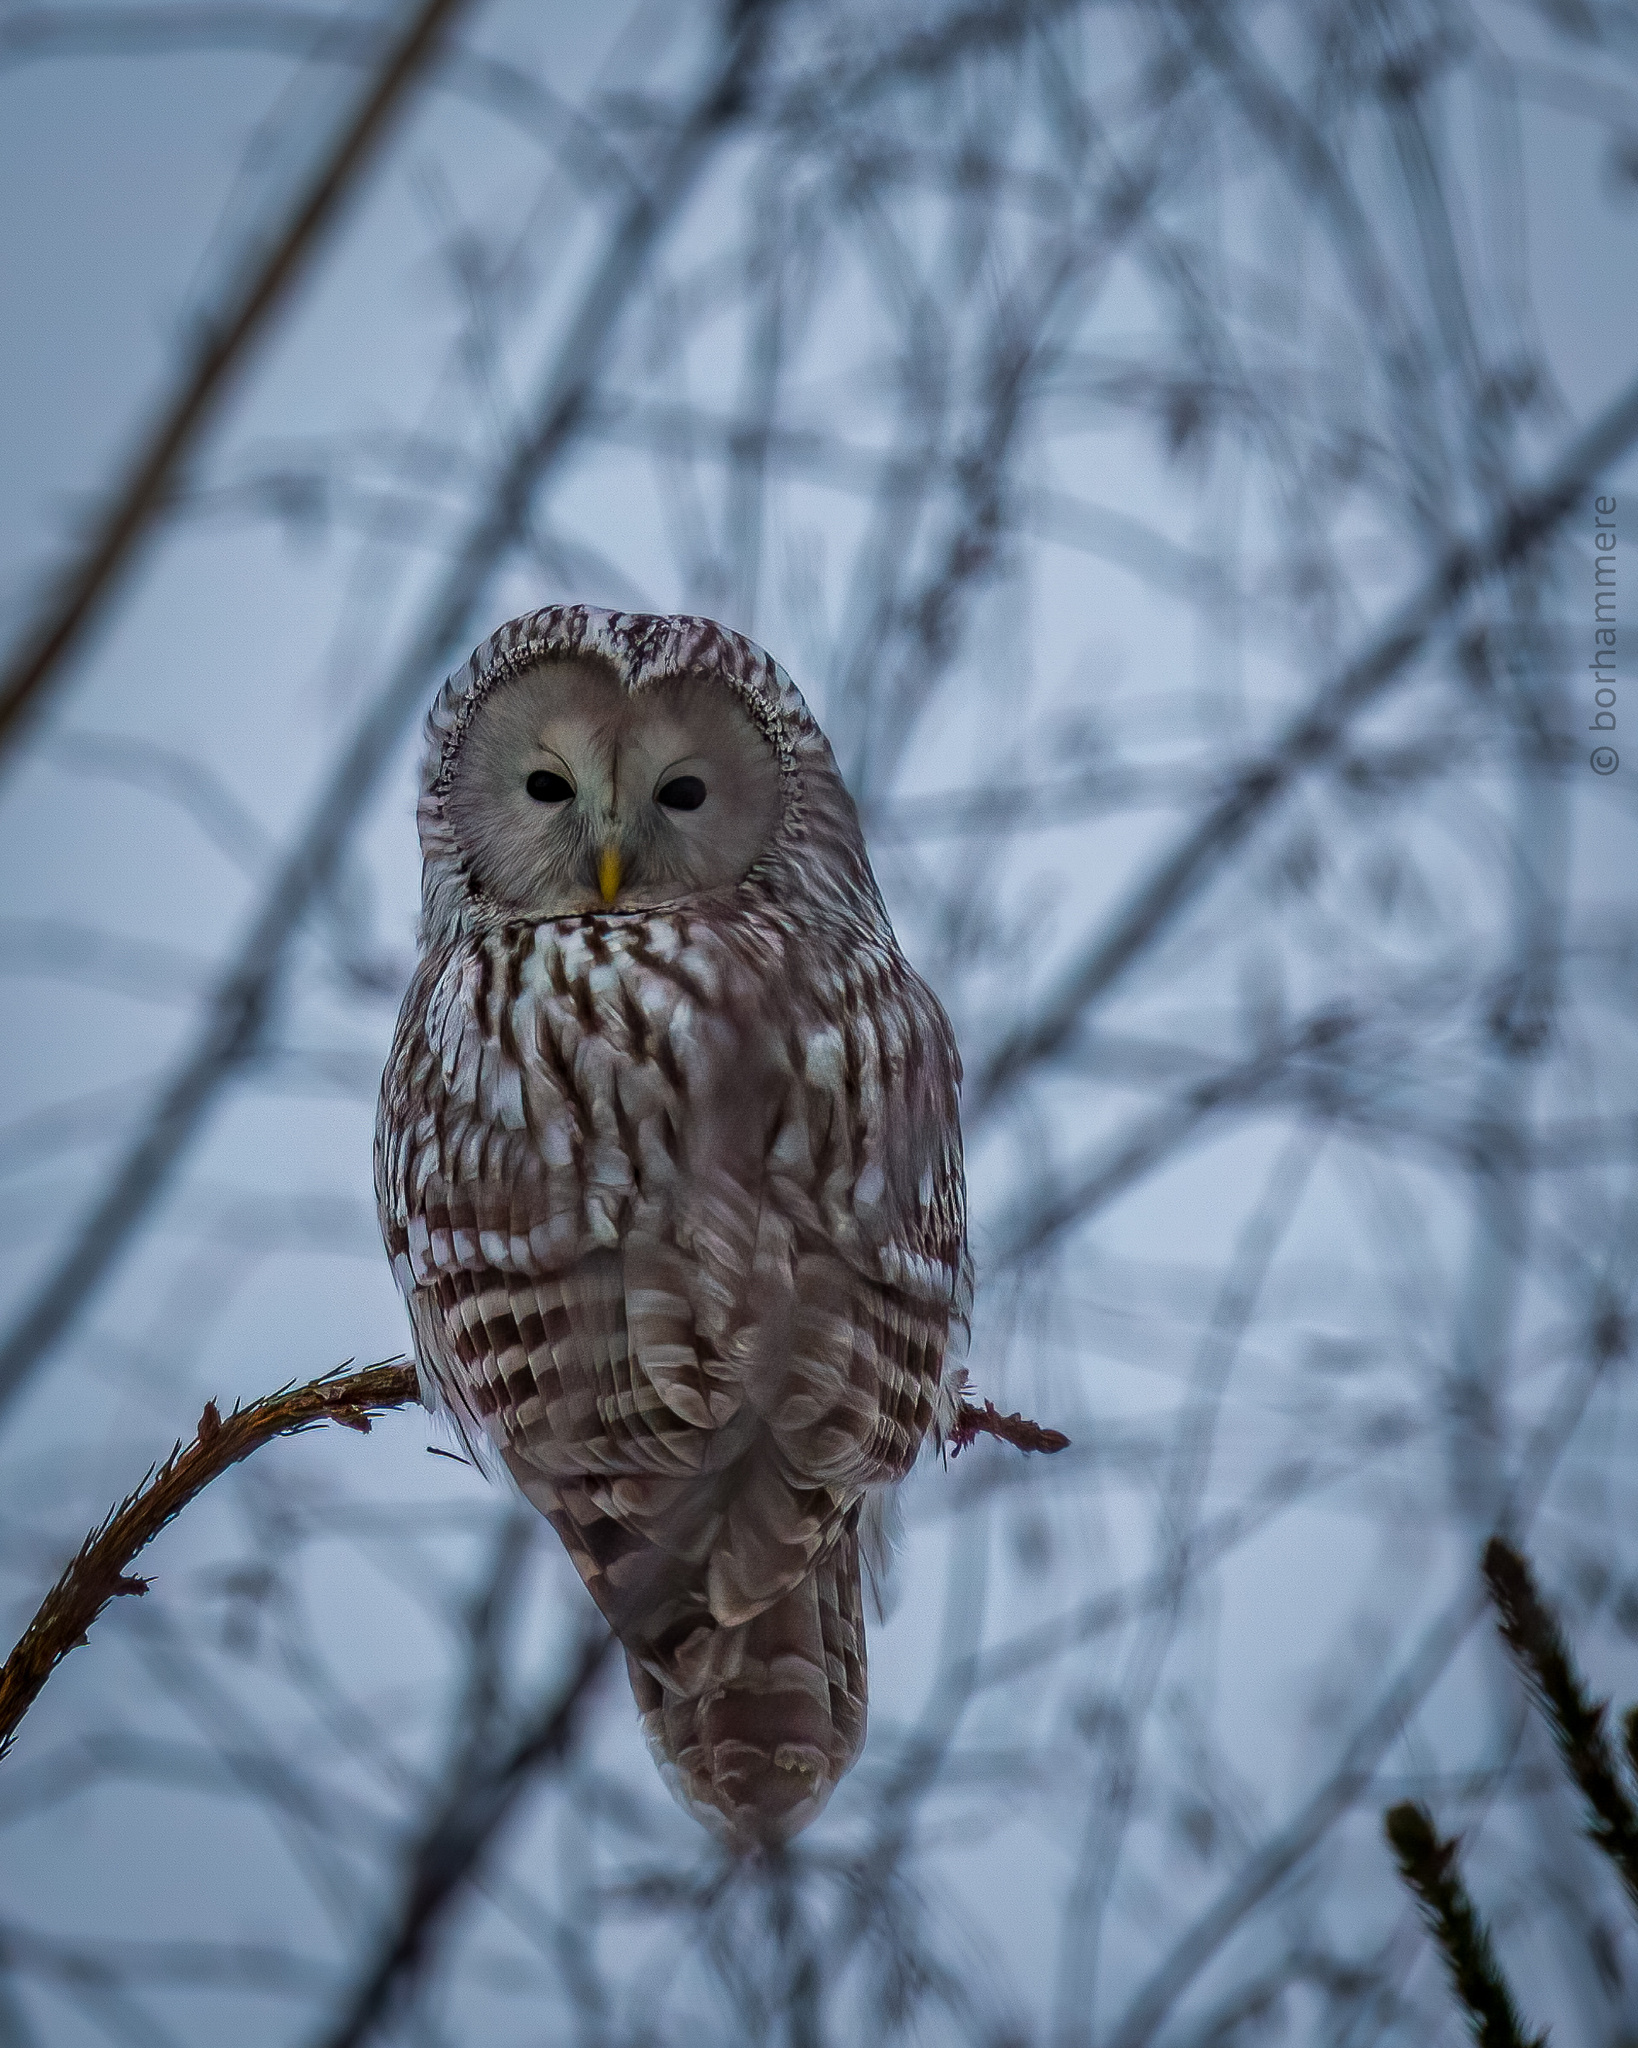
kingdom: Animalia
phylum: Chordata
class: Aves
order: Strigiformes
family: Strigidae
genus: Strix
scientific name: Strix uralensis
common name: Ural owl
